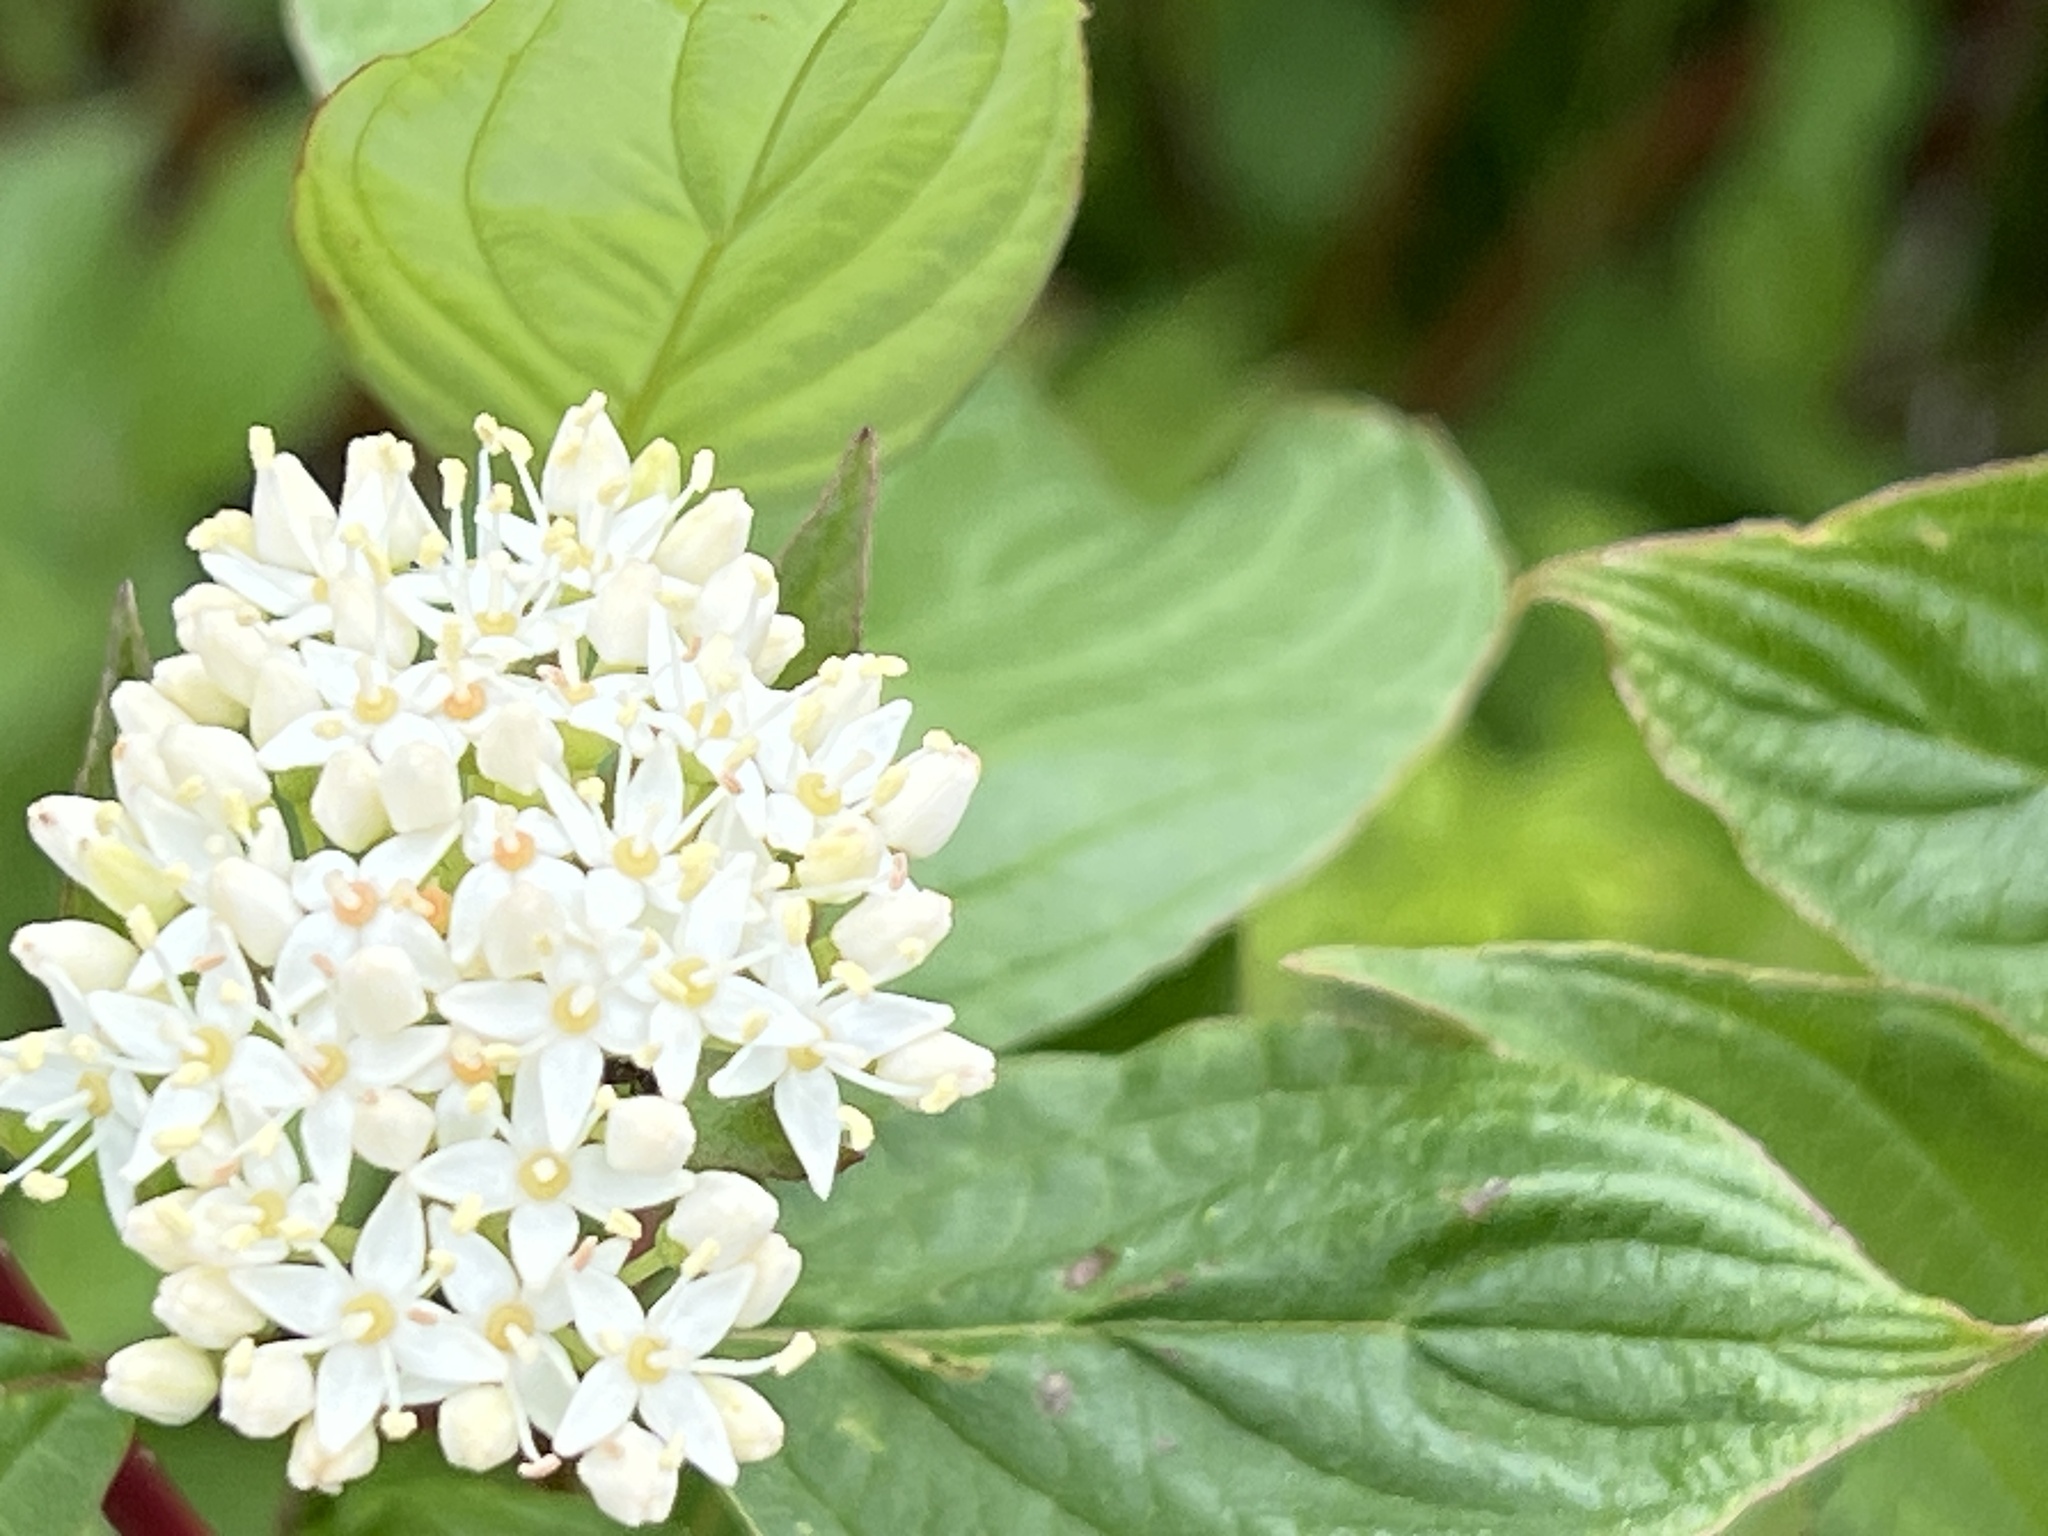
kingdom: Plantae
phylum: Tracheophyta
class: Magnoliopsida
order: Cornales
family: Cornaceae
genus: Cornus
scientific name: Cornus sericea
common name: Red-osier dogwood
